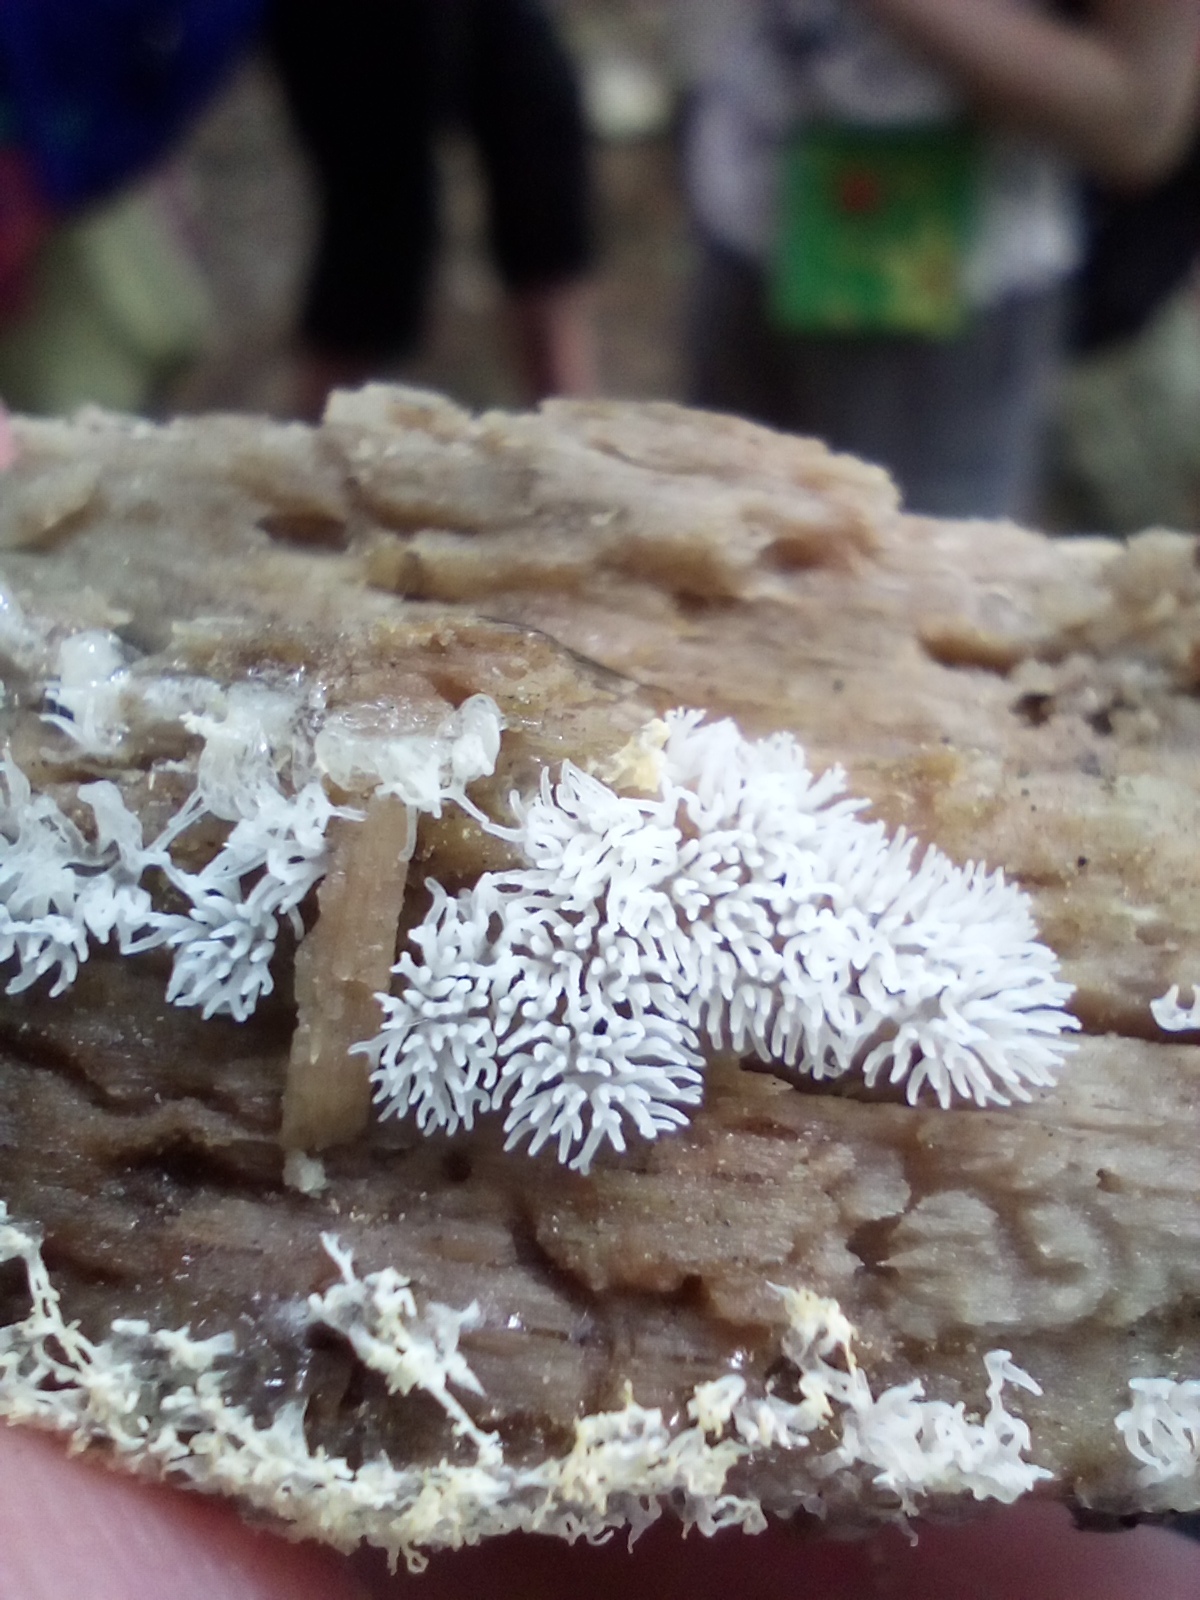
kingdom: Protozoa
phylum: Mycetozoa
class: Protosteliomycetes
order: Ceratiomyxales
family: Ceratiomyxaceae
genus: Ceratiomyxa
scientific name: Ceratiomyxa fruticulosa
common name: Honeycomb coral slime mold
